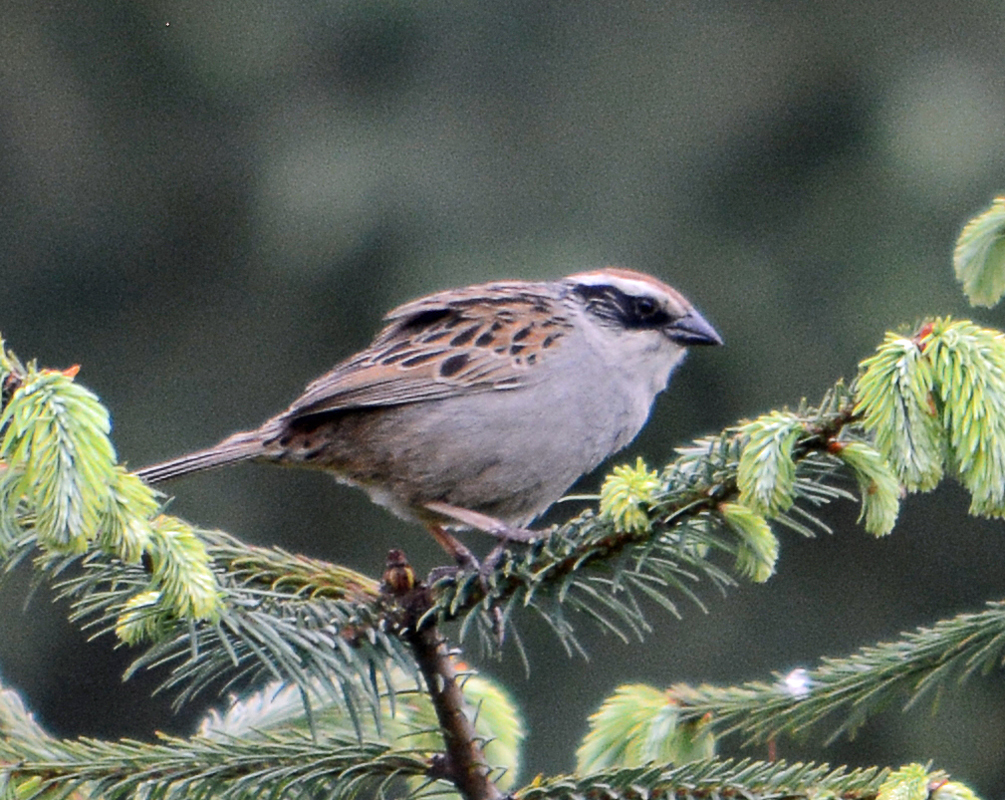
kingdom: Animalia
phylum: Chordata
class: Aves
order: Passeriformes
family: Passerellidae
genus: Oriturus
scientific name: Oriturus superciliosus
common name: Striped sparrow
